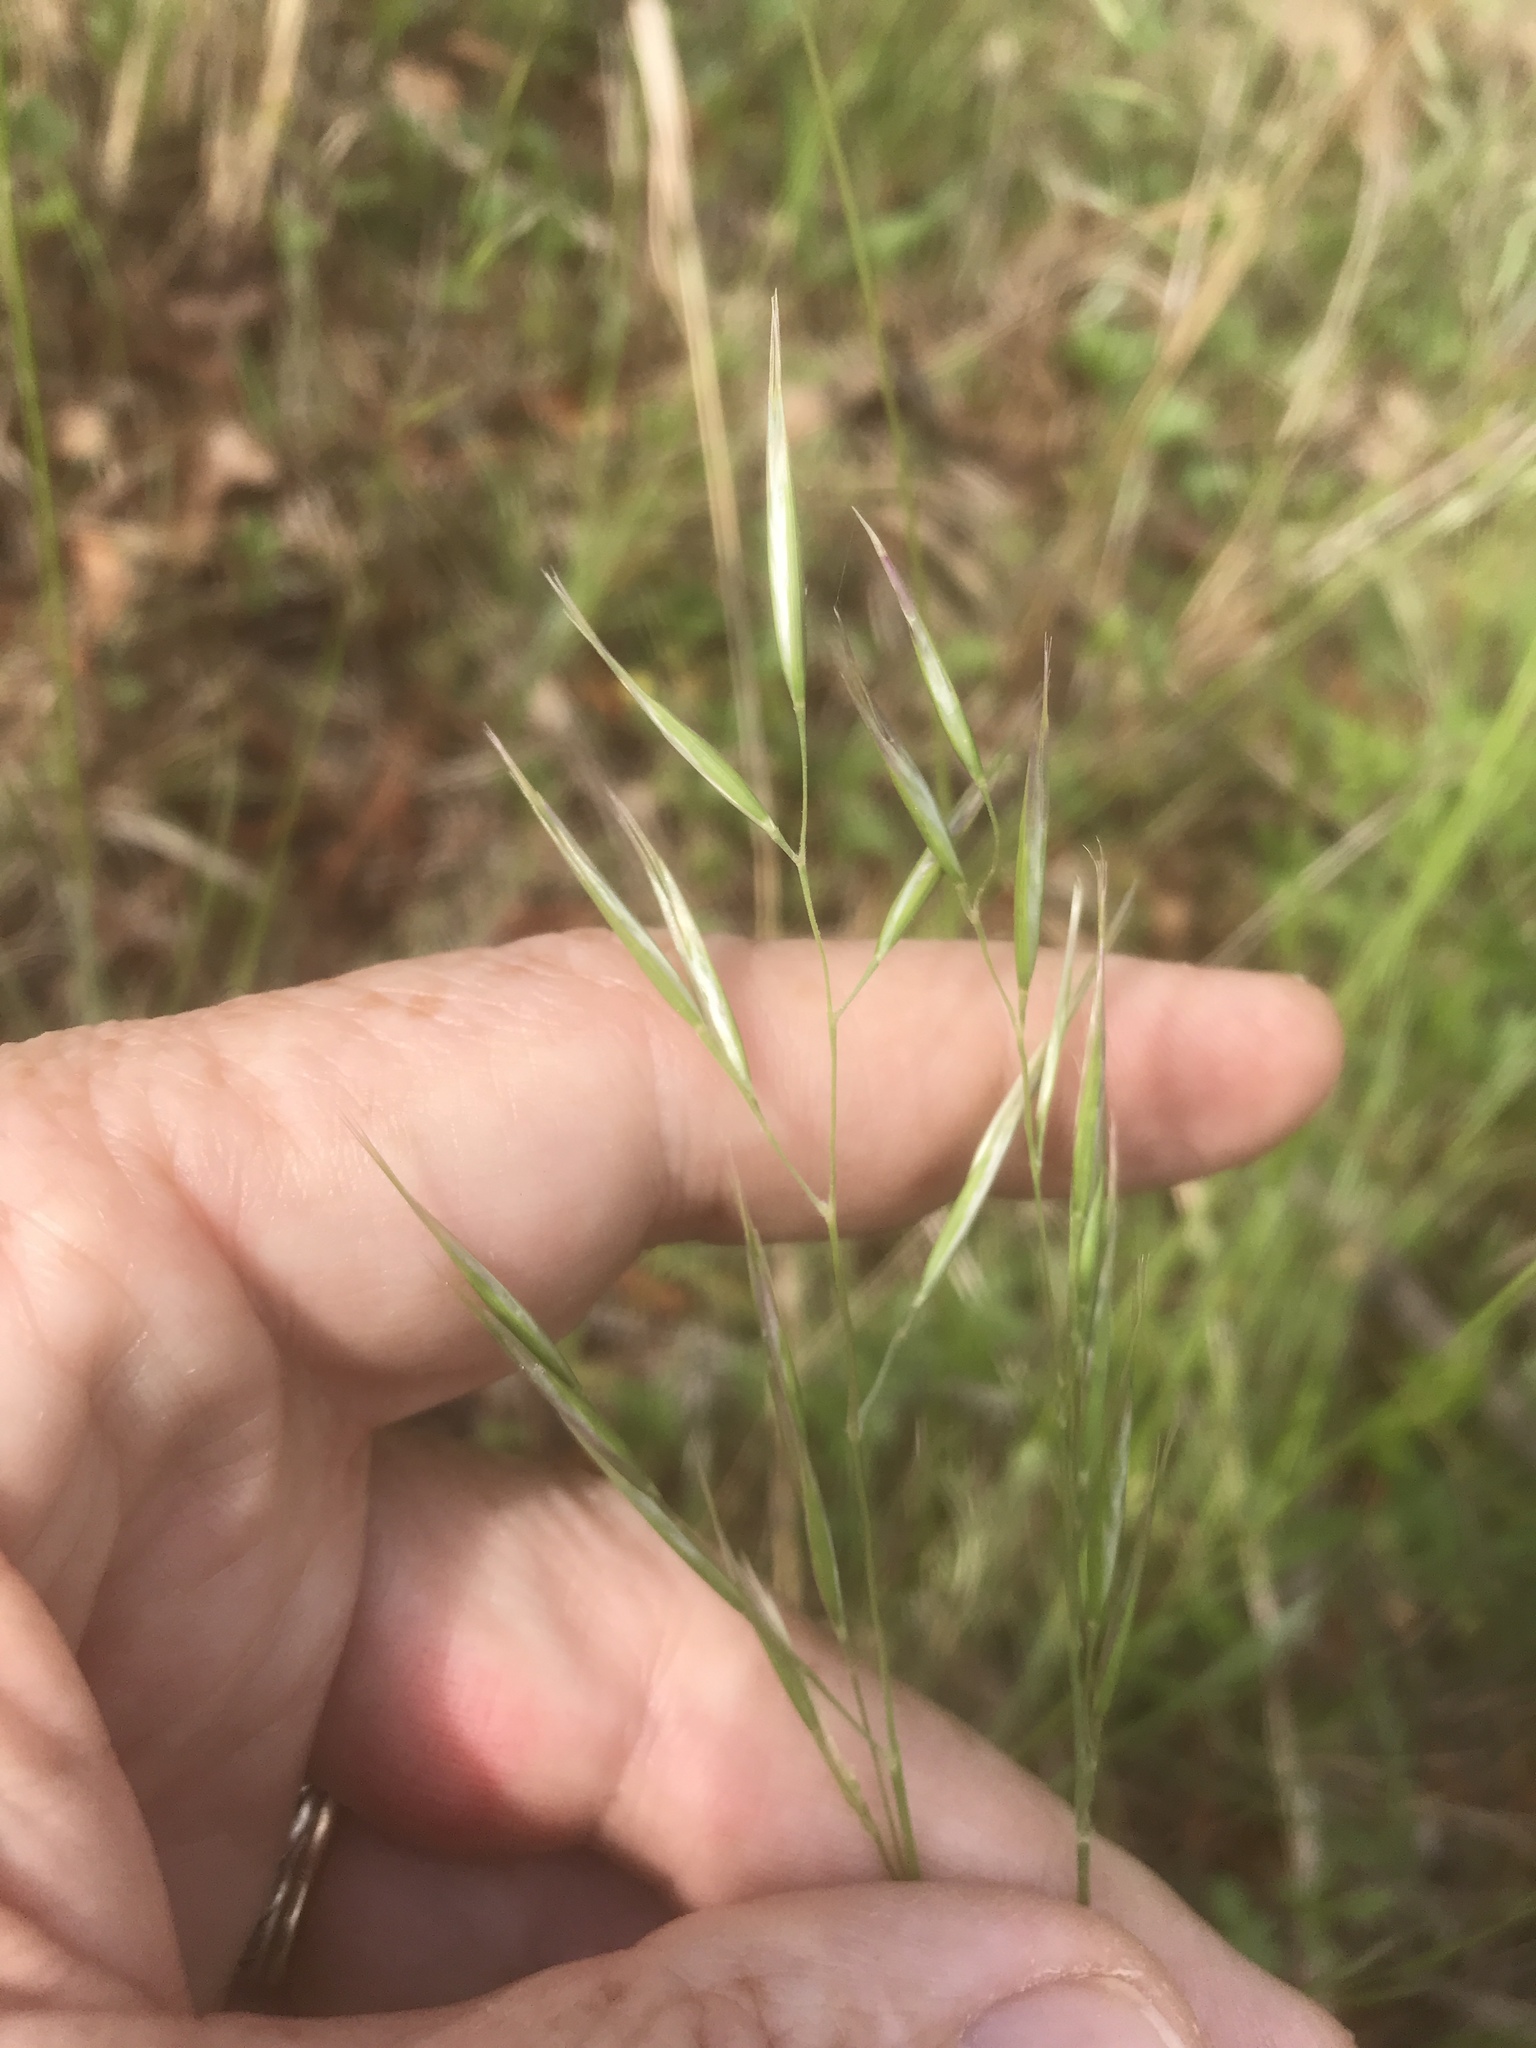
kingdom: Plantae
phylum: Tracheophyta
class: Liliopsida
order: Poales
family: Poaceae
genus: Danthonia
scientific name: Danthonia sericea
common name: Downy danthonia
